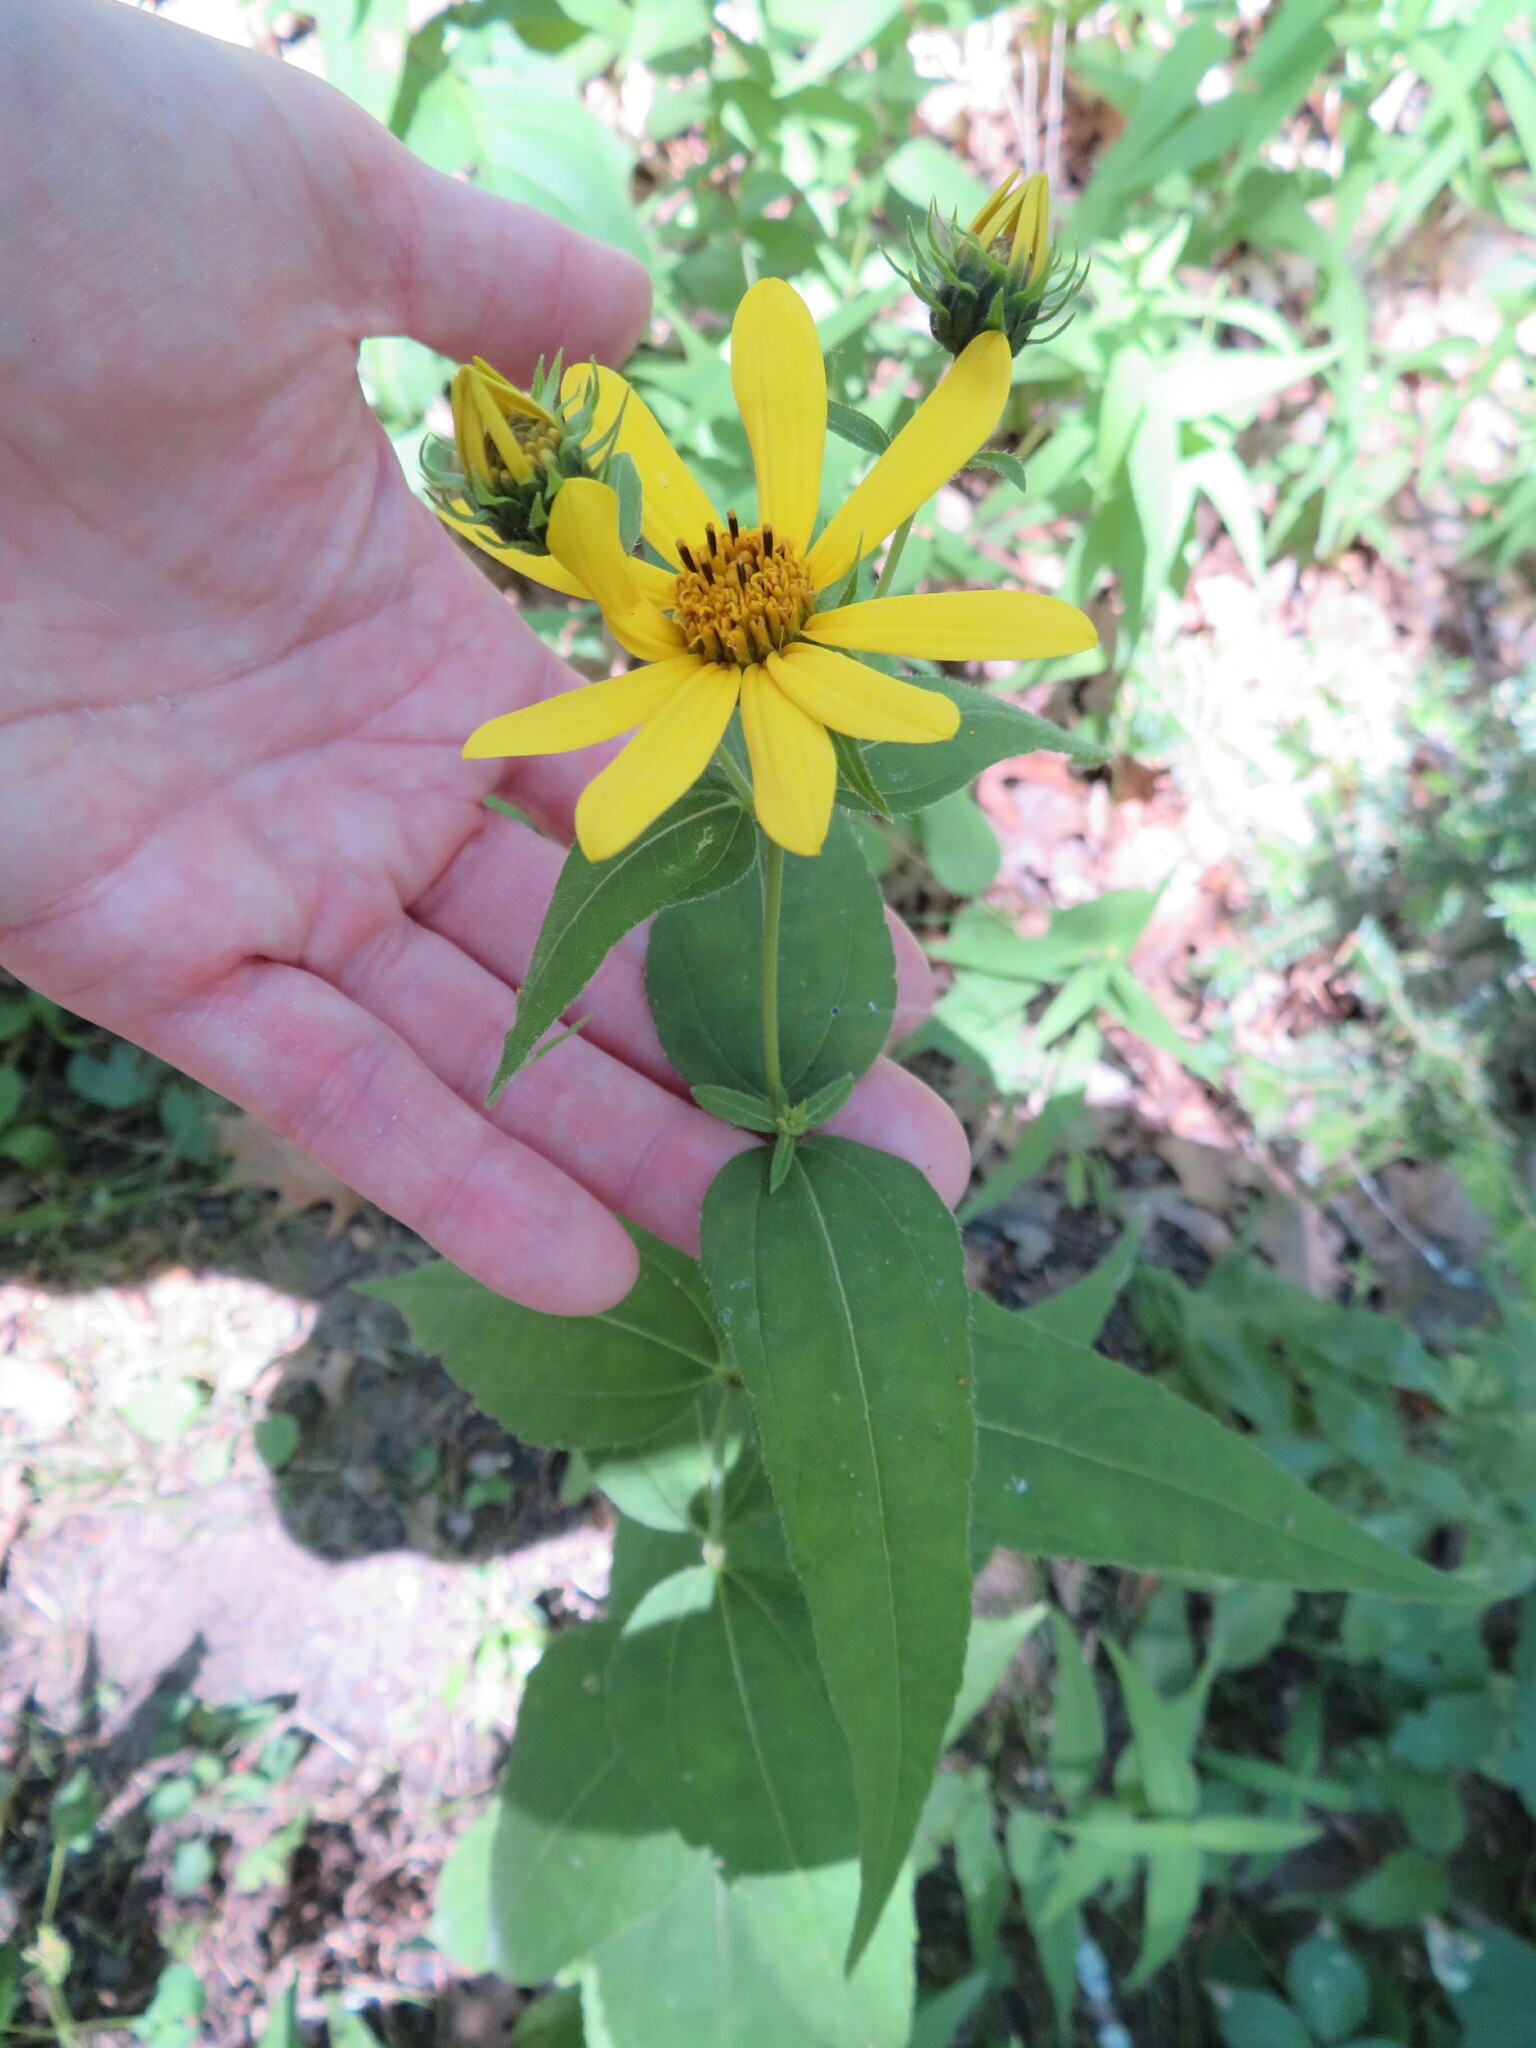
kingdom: Plantae
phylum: Tracheophyta
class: Magnoliopsida
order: Asterales
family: Asteraceae
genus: Helianthus
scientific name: Helianthus divaricatus
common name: Divergent sunflower
